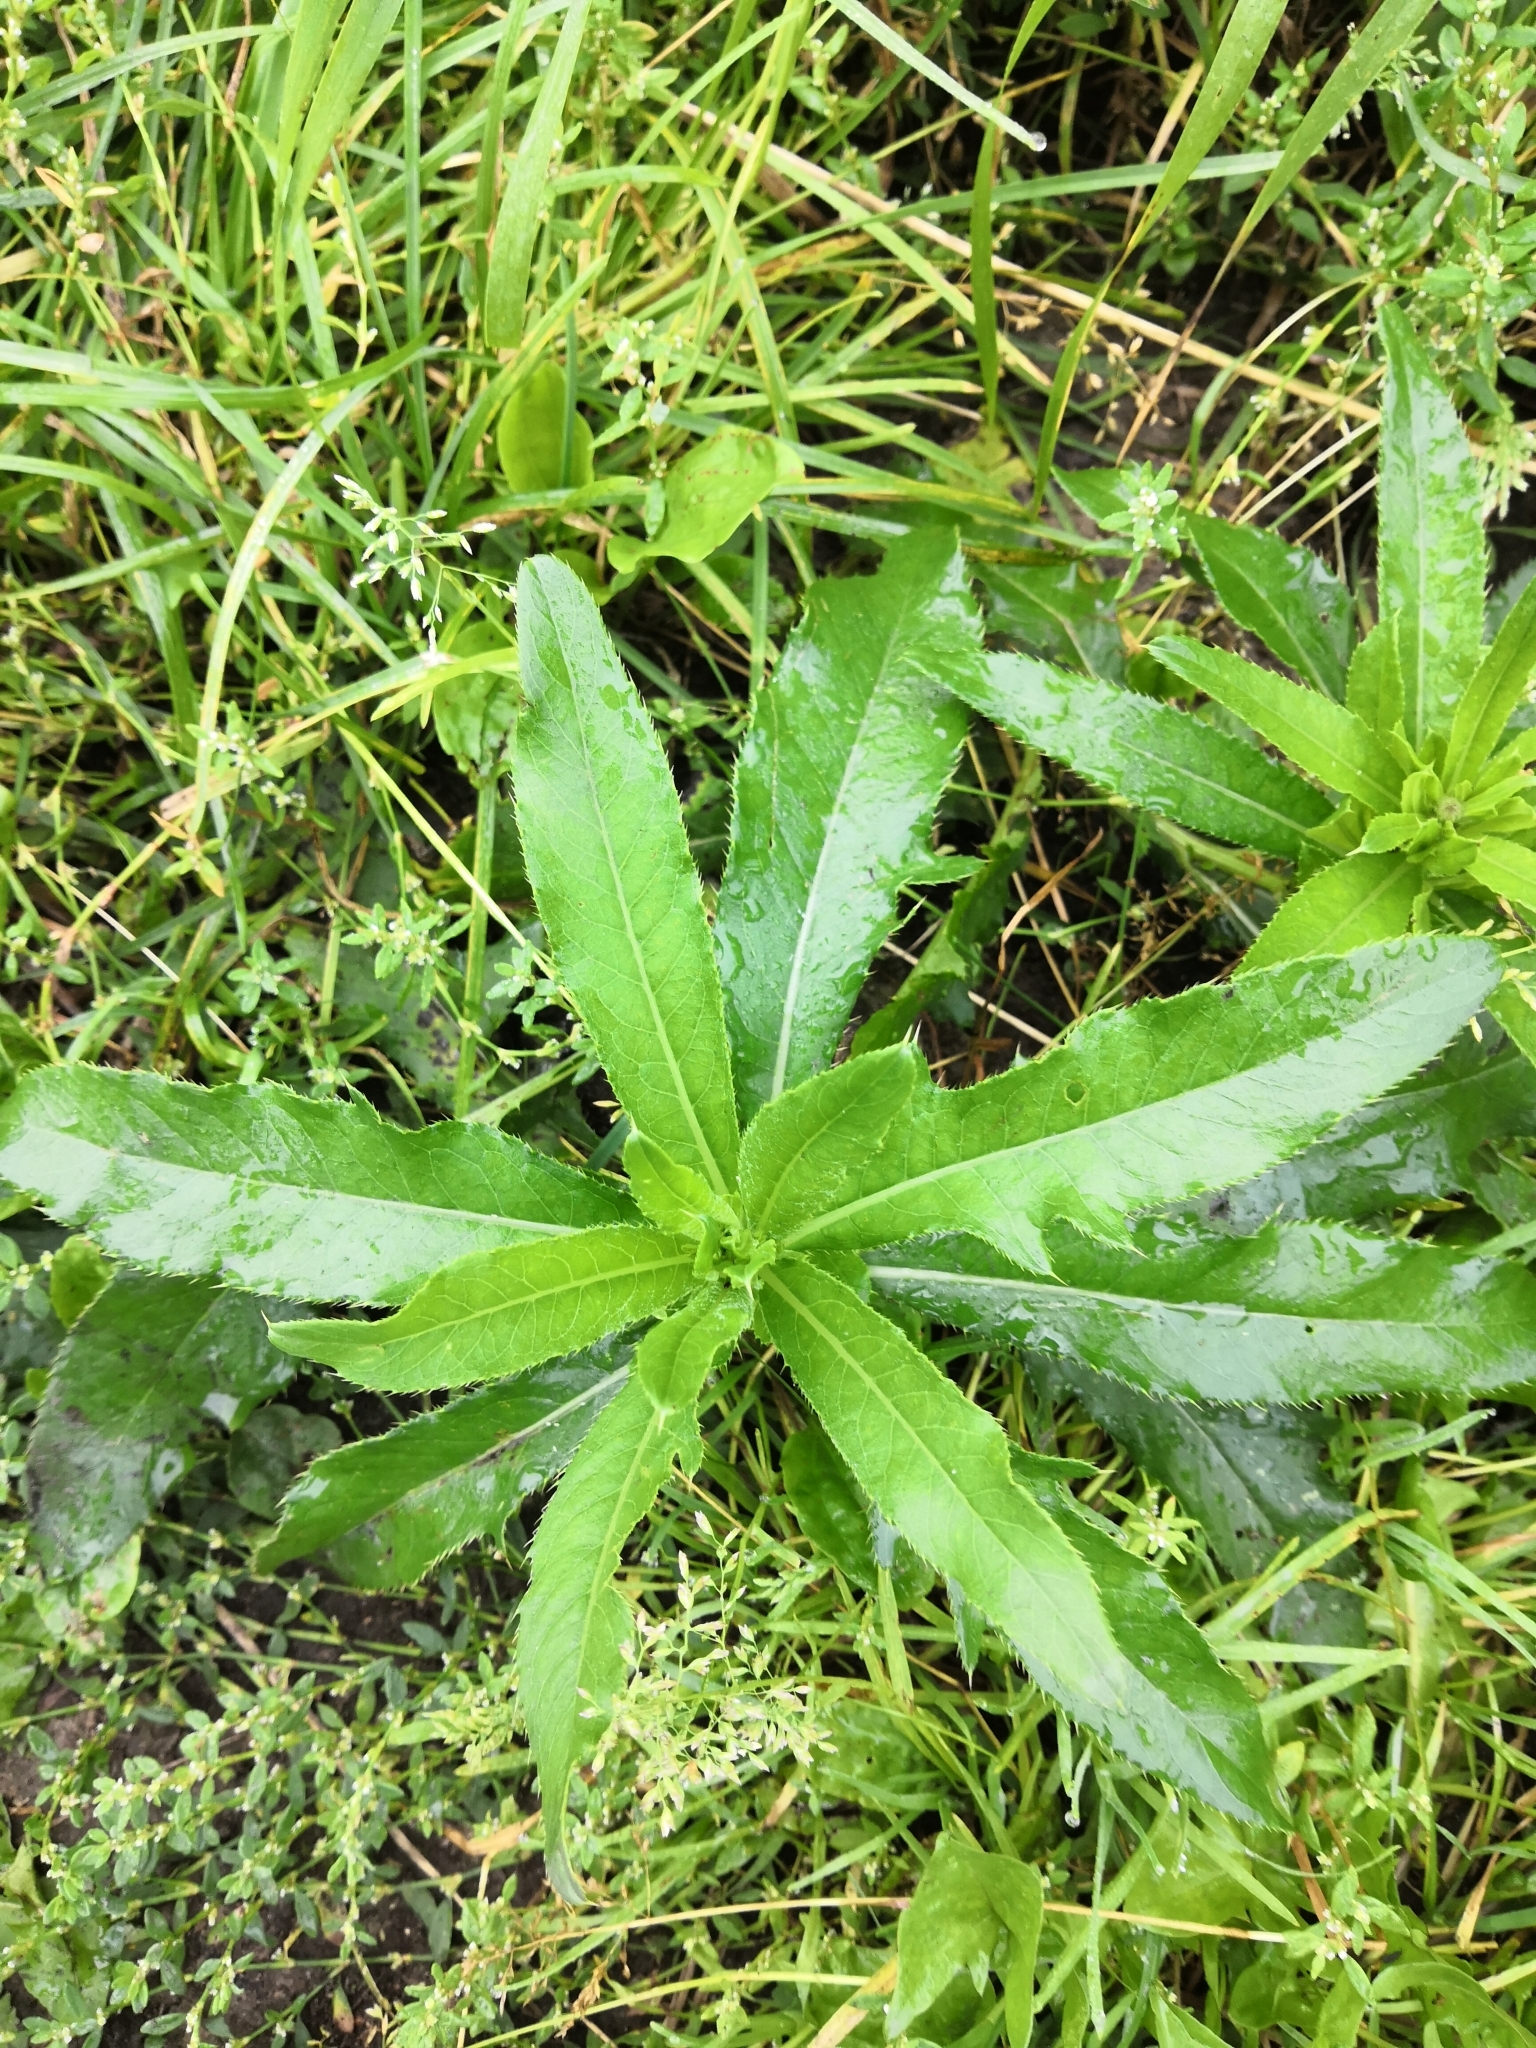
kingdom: Plantae
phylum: Tracheophyta
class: Magnoliopsida
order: Asterales
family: Asteraceae
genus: Cirsium
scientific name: Cirsium arvense
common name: Creeping thistle
